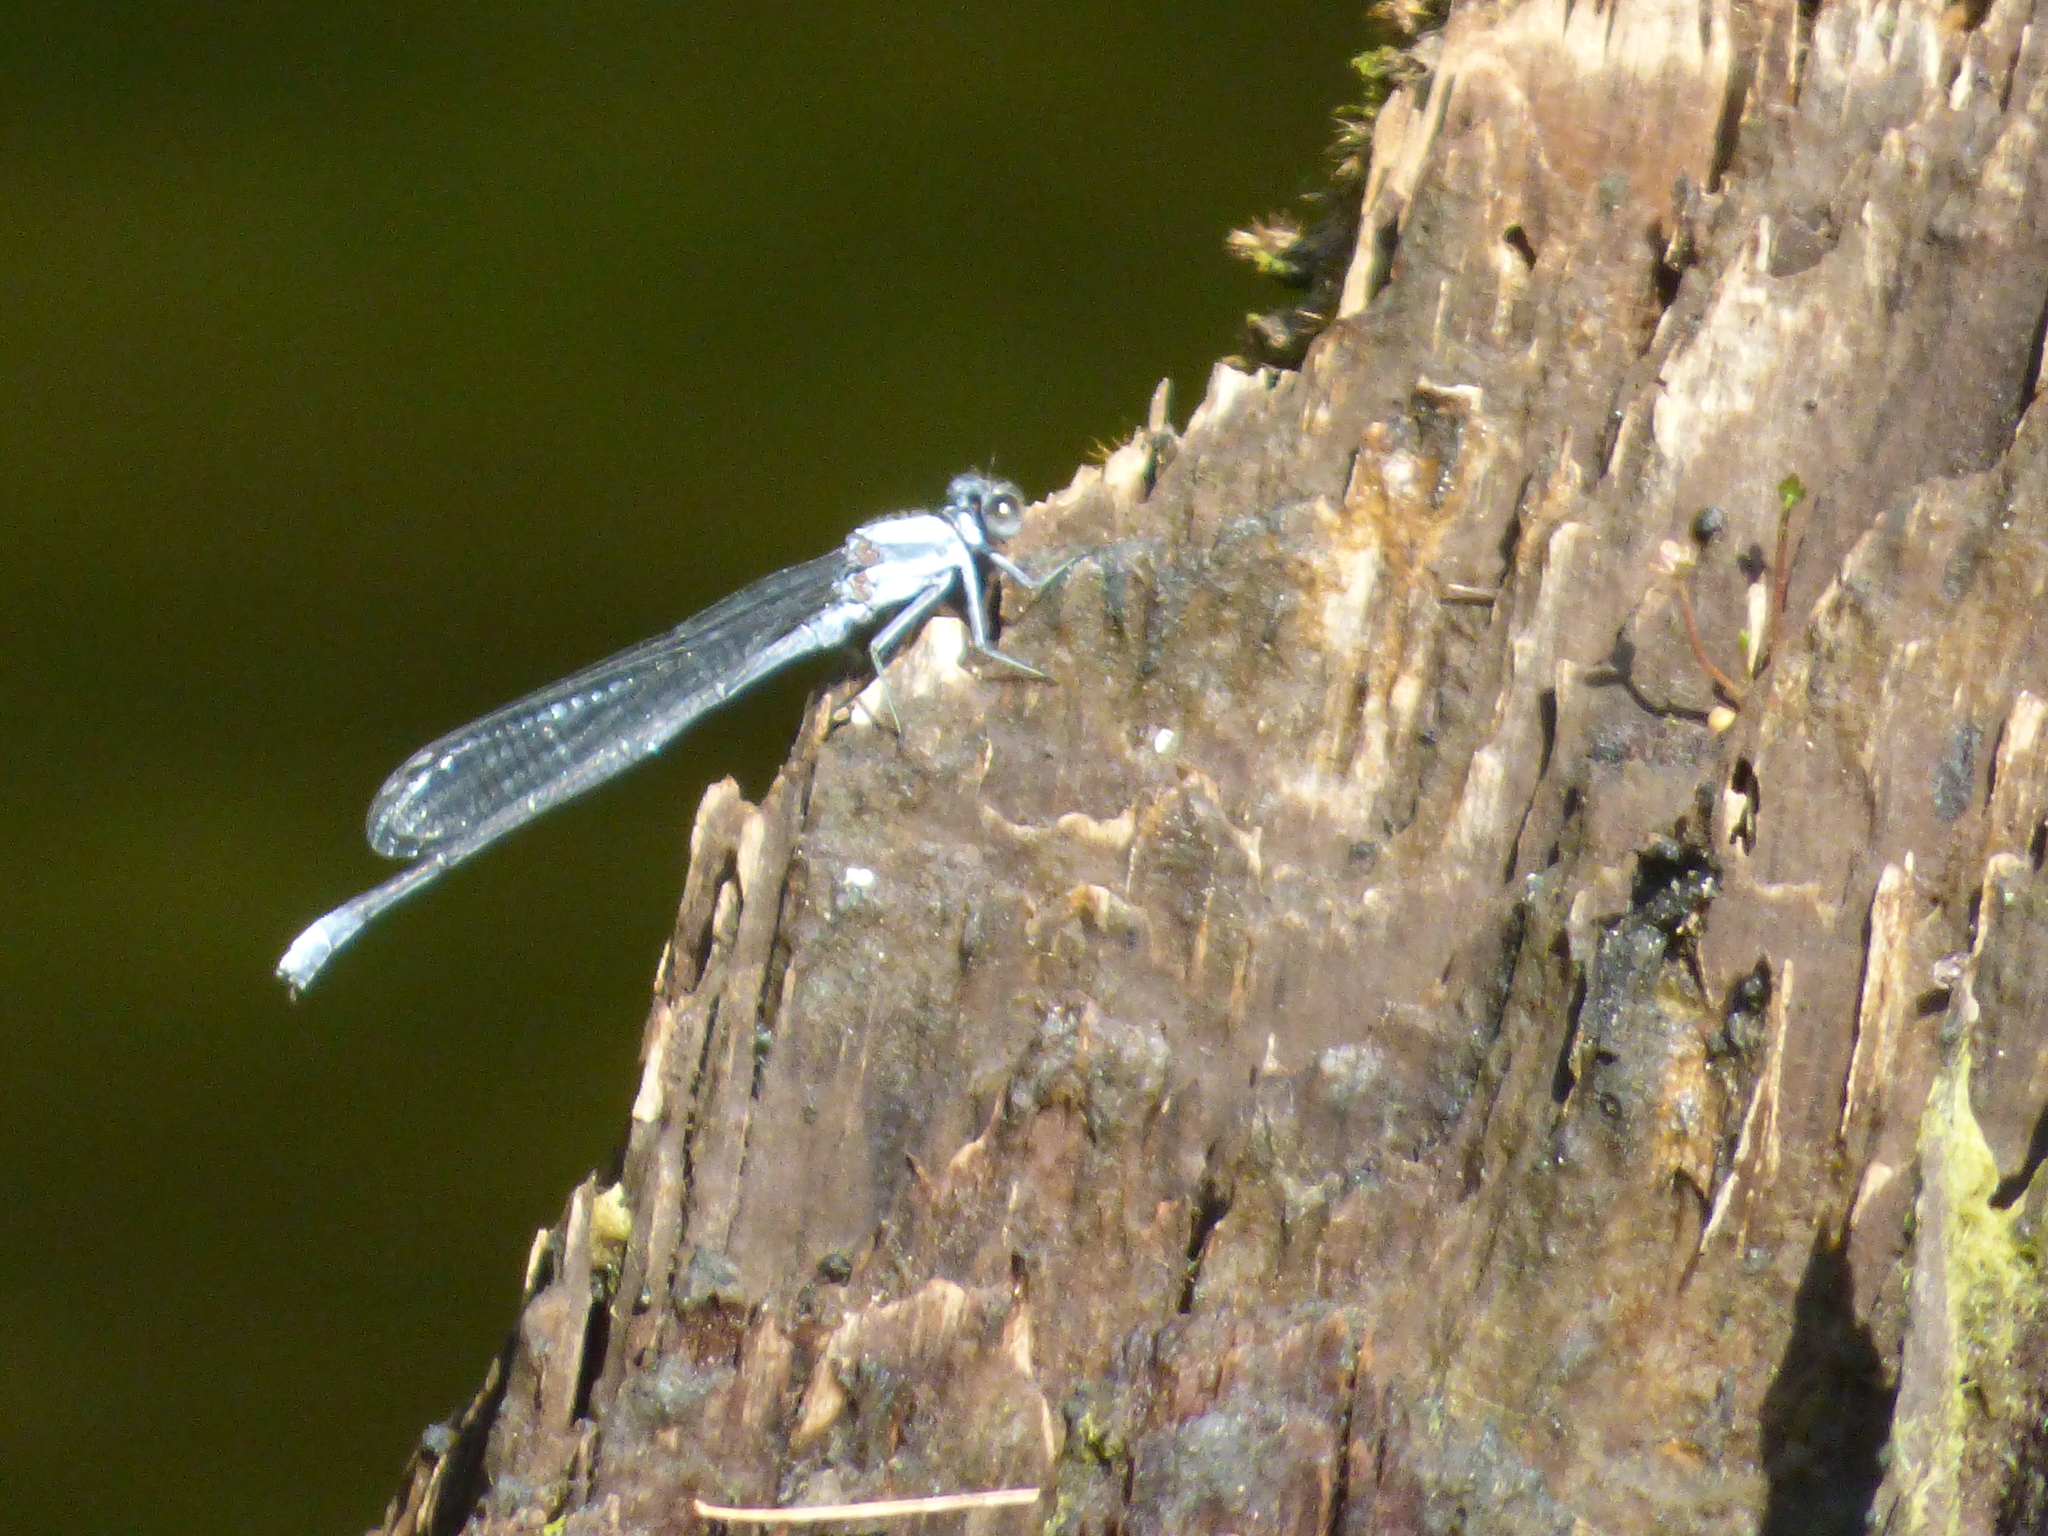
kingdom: Animalia
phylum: Arthropoda
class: Insecta
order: Odonata
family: Coenagrionidae
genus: Argia
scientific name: Argia moesta
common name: Powdered dancer
